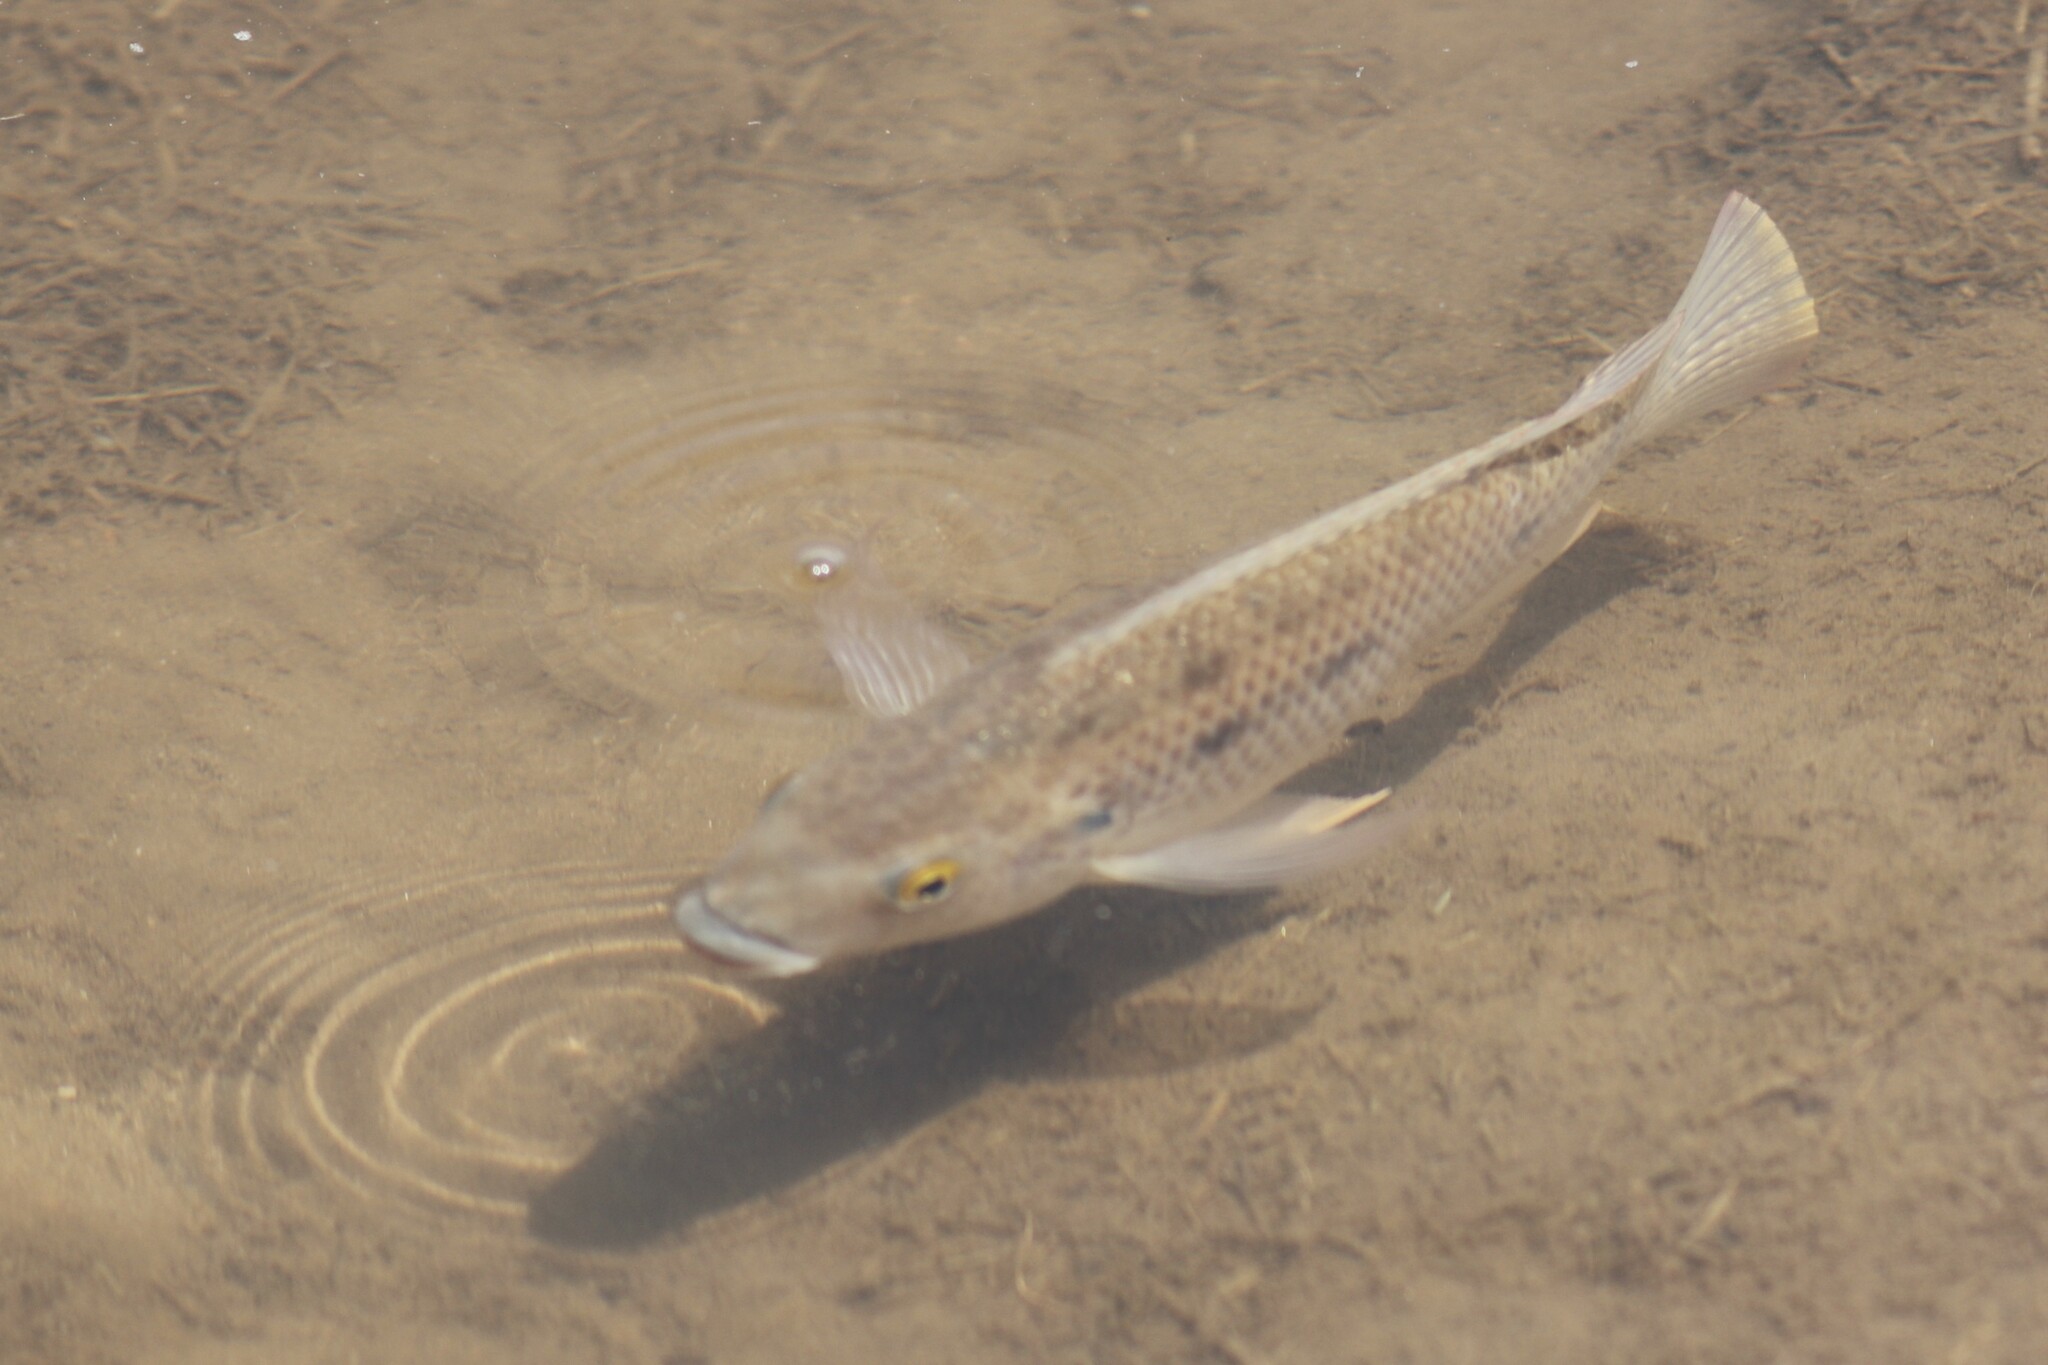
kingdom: Animalia
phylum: Chordata
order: Perciformes
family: Cichlidae
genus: Oreochromis
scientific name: Oreochromis mossambicus
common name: Mozambique tilapia
